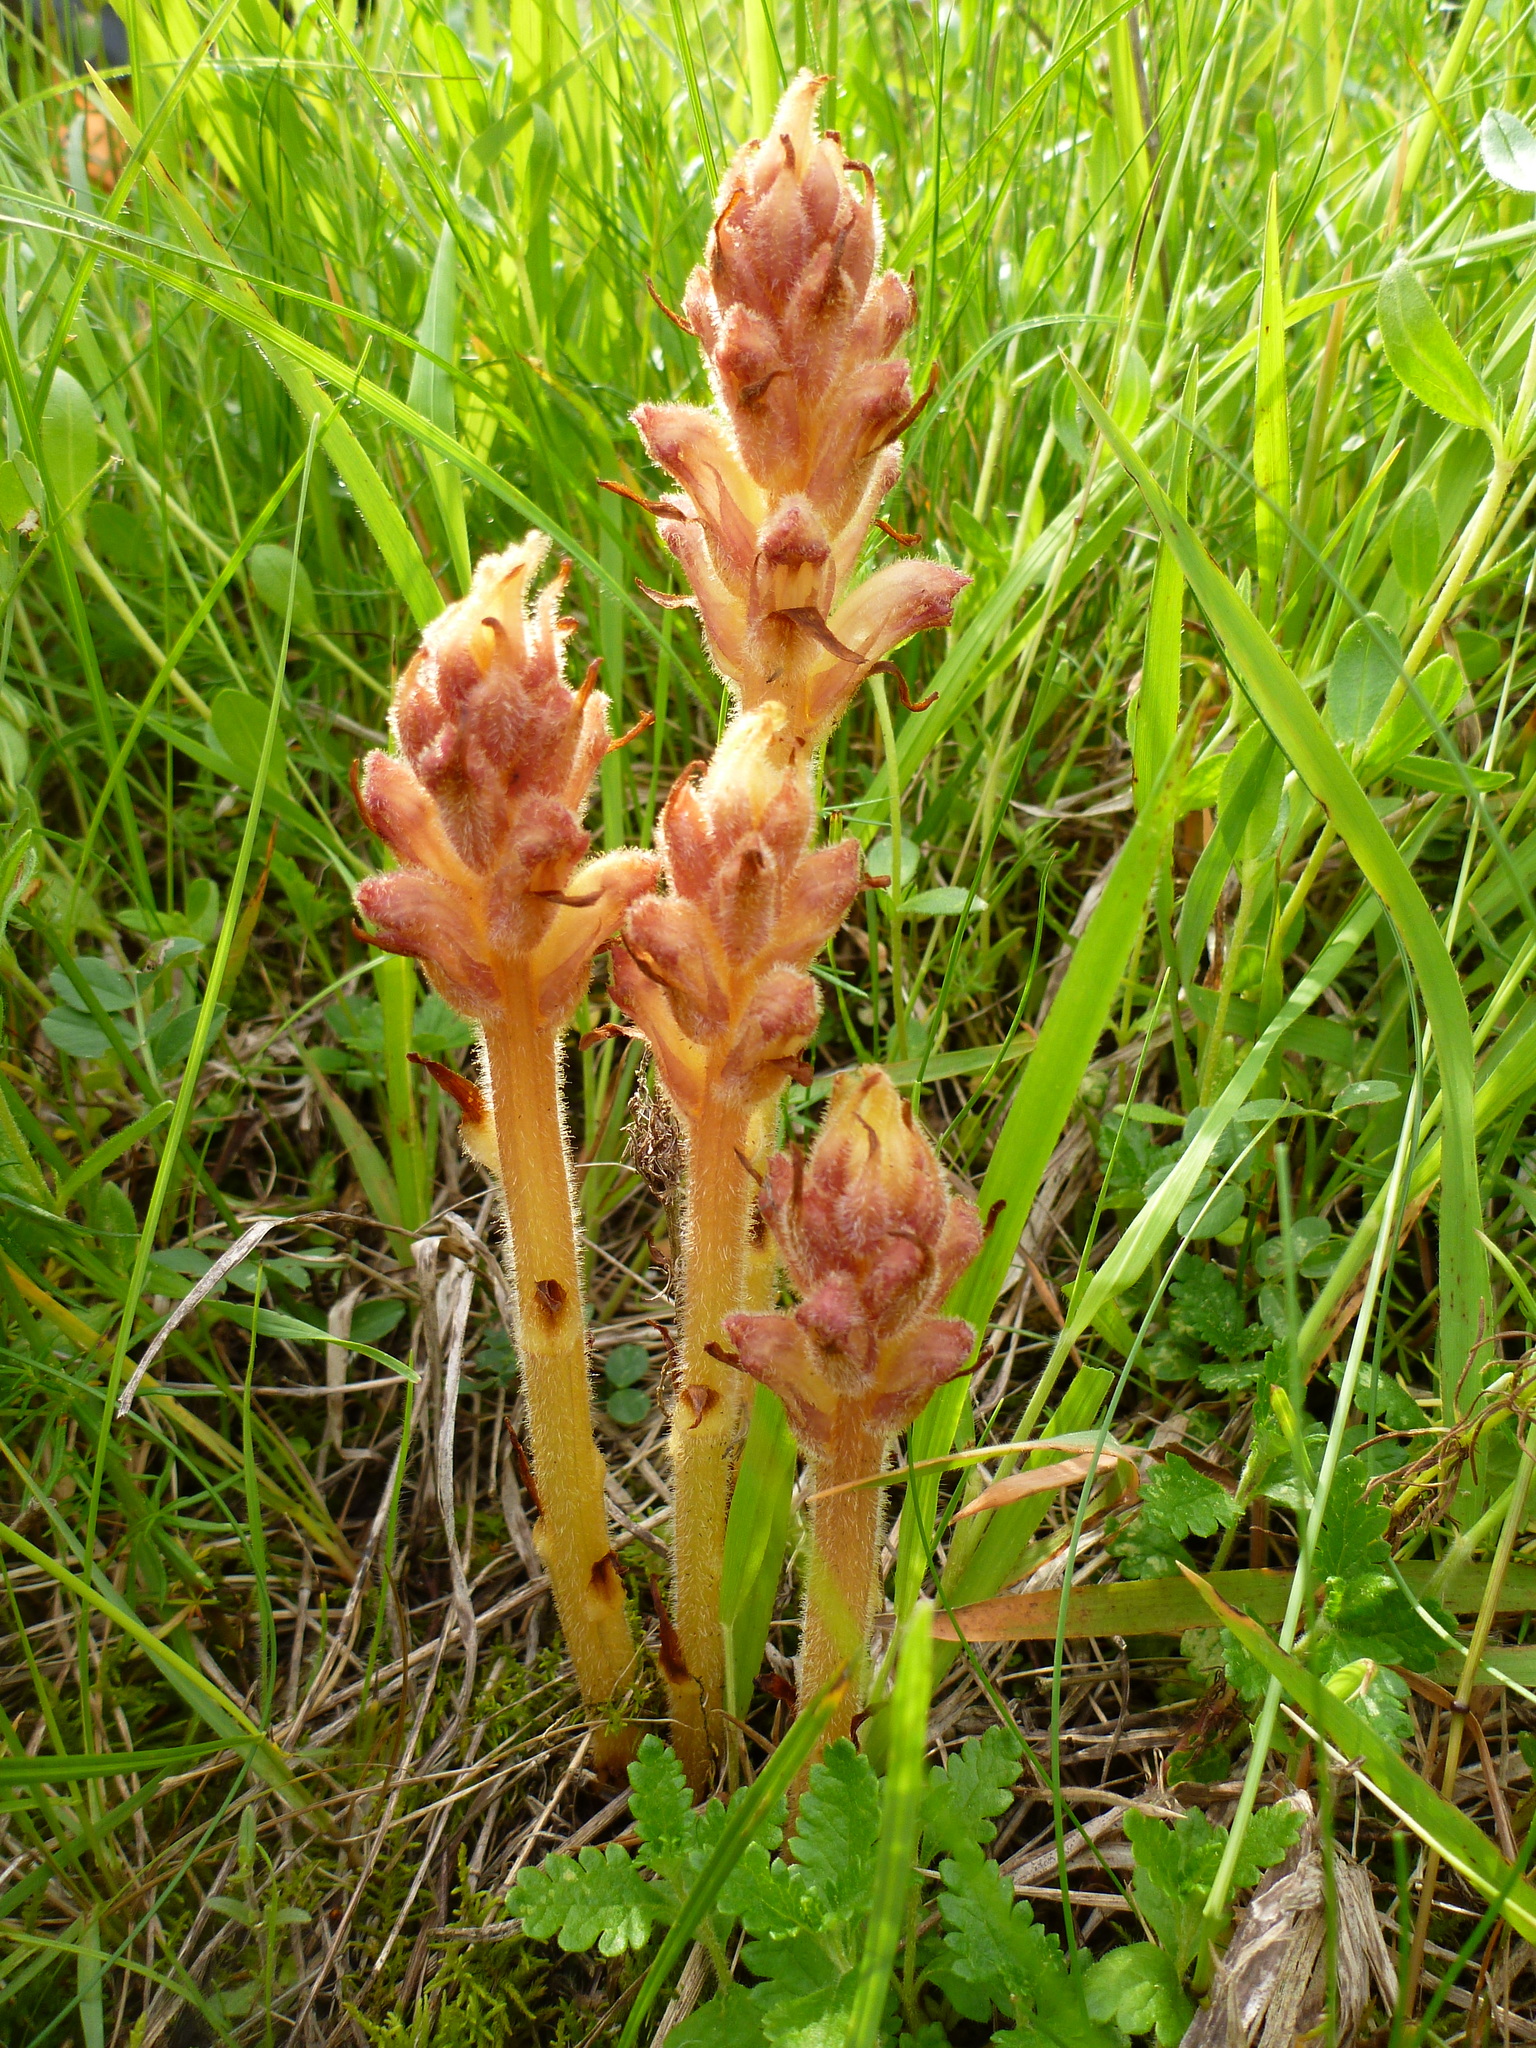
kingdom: Plantae
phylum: Tracheophyta
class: Magnoliopsida
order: Lamiales
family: Orobanchaceae
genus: Orobanche
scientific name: Orobanche teucrii
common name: Germander broomrape
